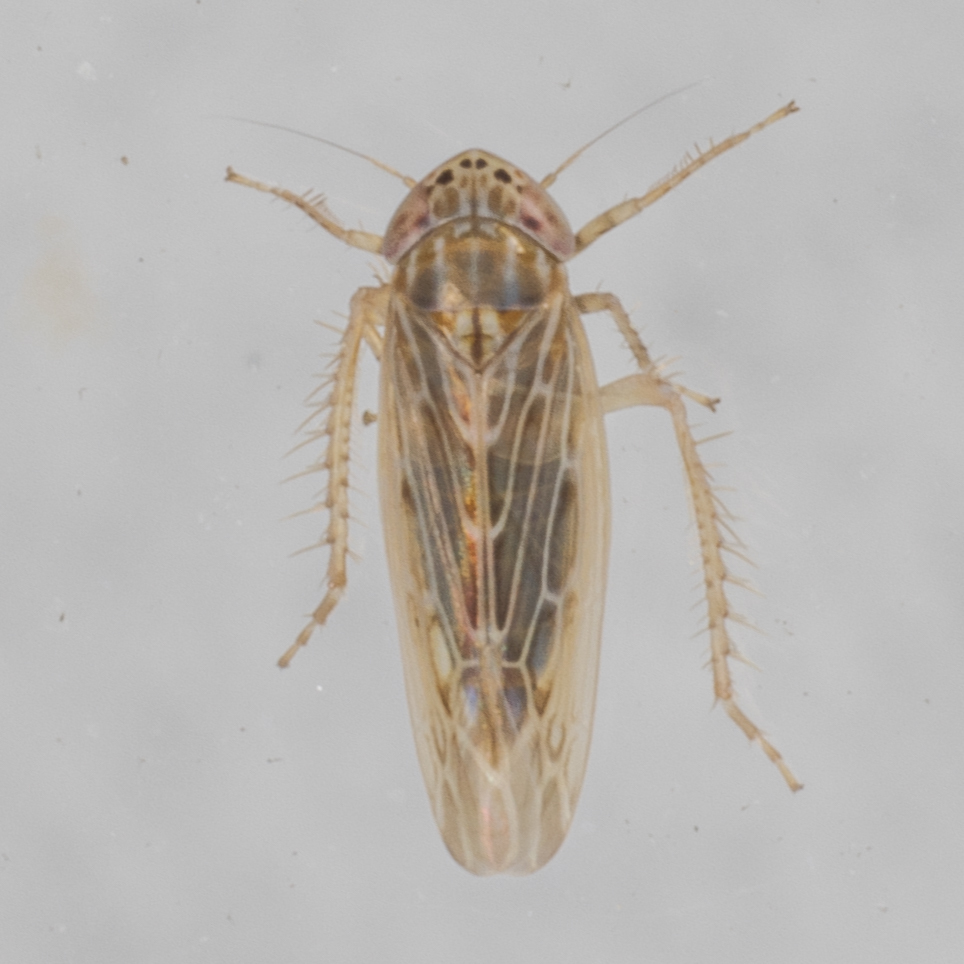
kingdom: Animalia
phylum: Arthropoda
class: Insecta
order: Hemiptera
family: Cicadellidae
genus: Graminella
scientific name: Graminella sonora
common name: Lesser lawn leafhopper
